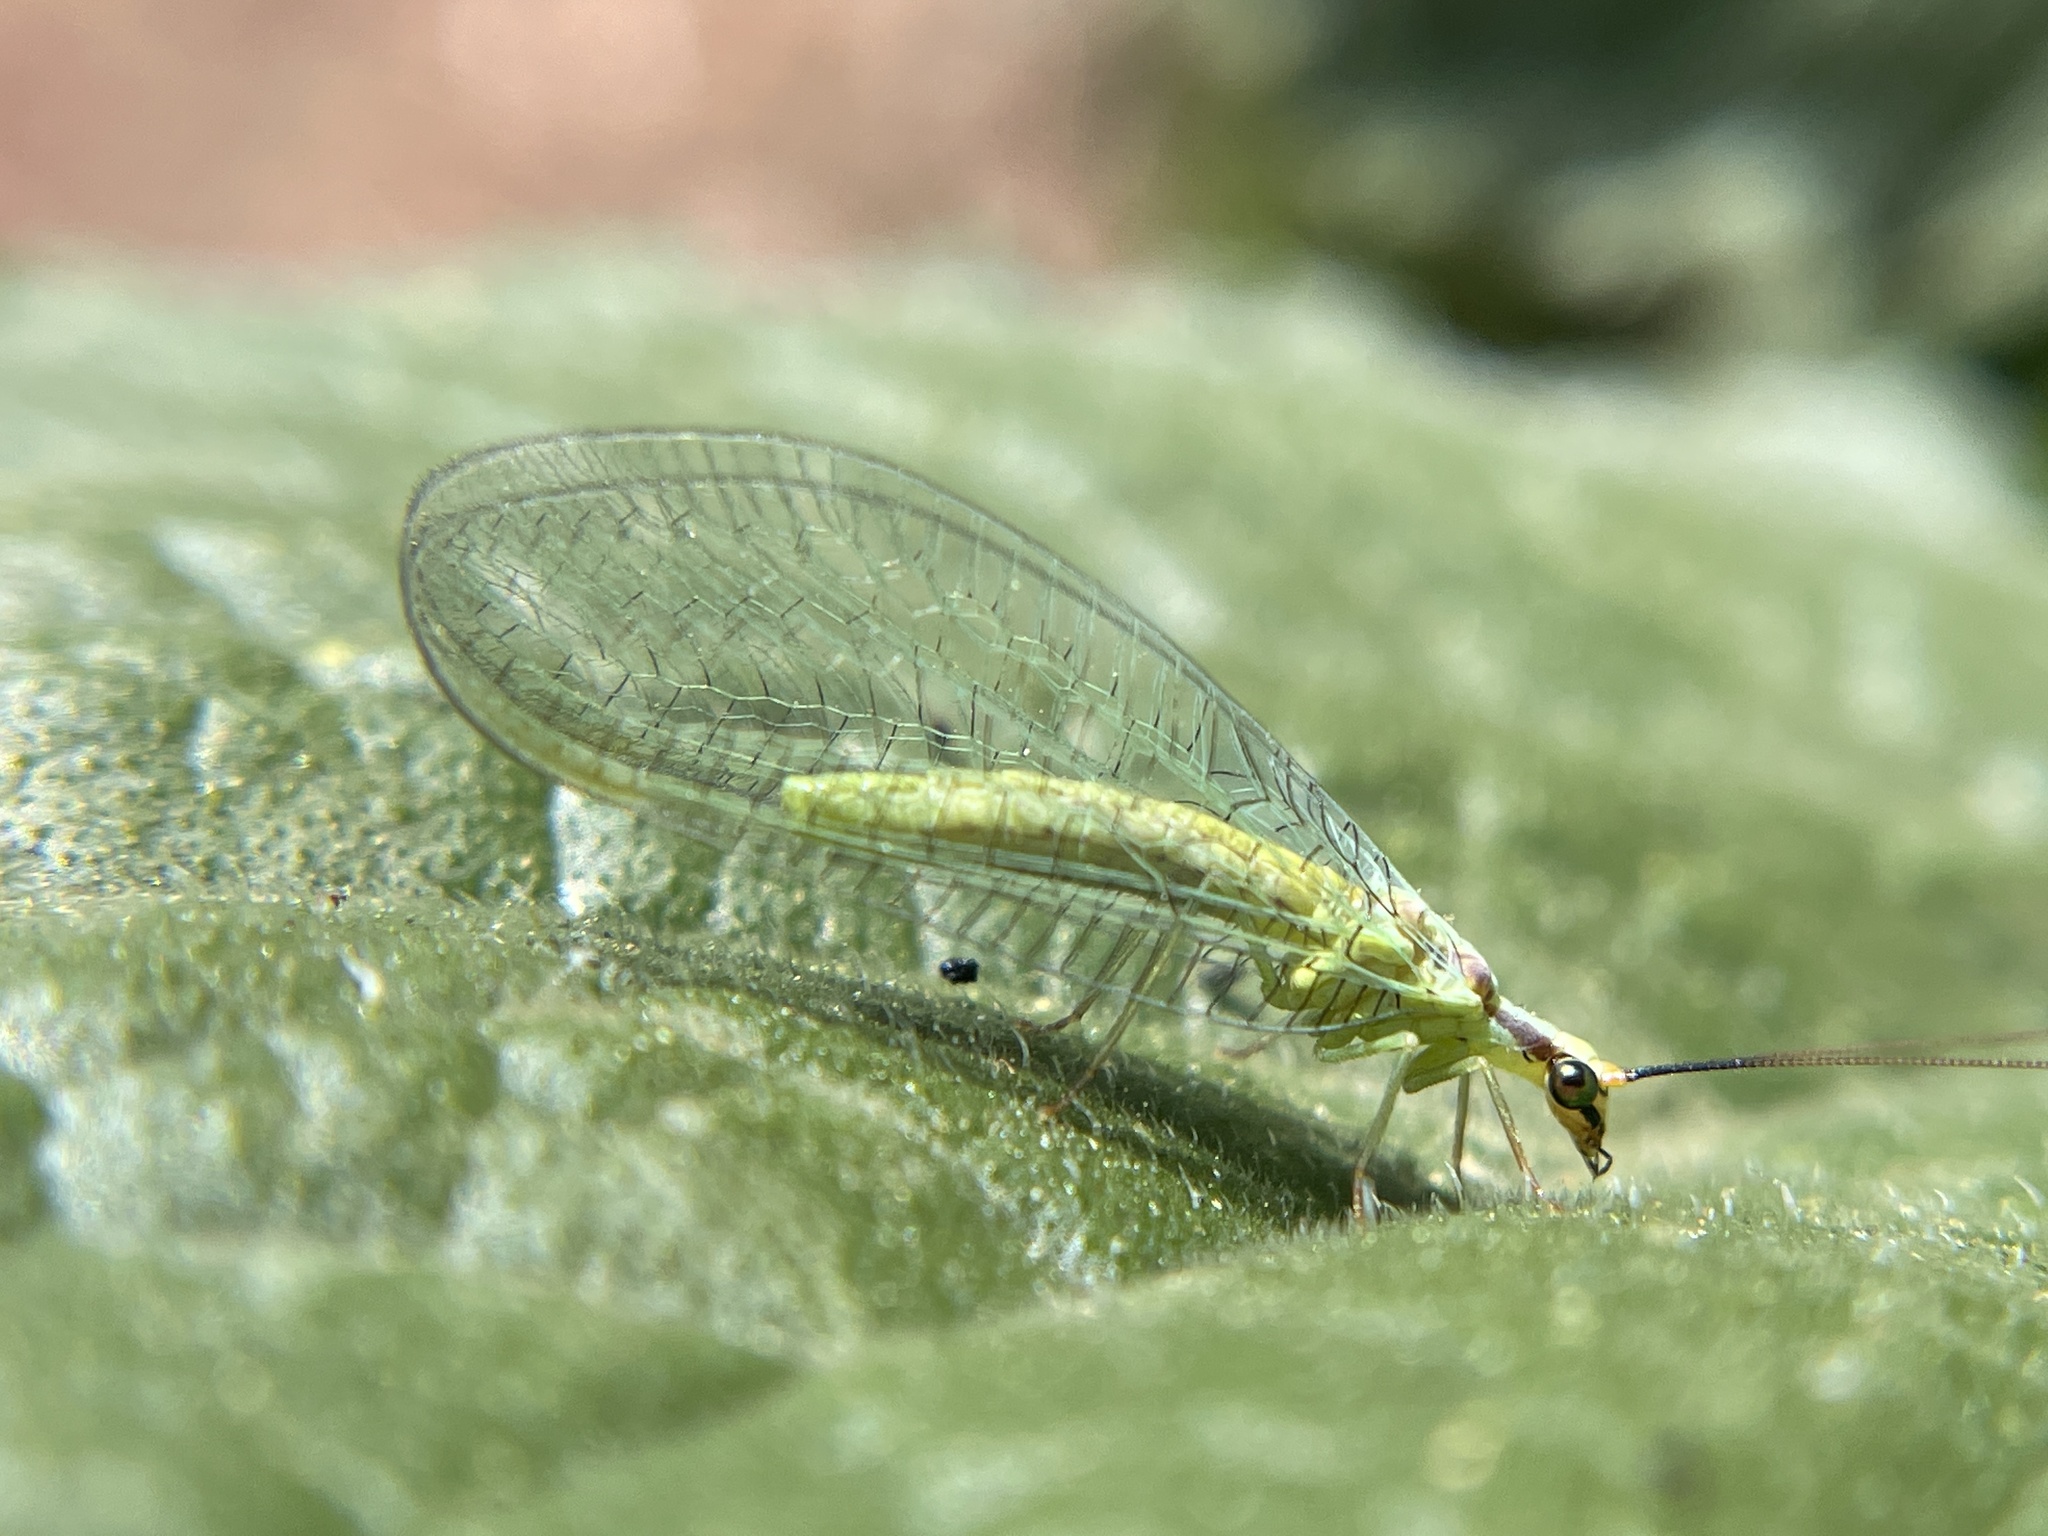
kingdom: Animalia
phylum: Arthropoda
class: Insecta
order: Neuroptera
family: Chrysopidae
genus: Chrysopa
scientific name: Chrysopa coloradensis
